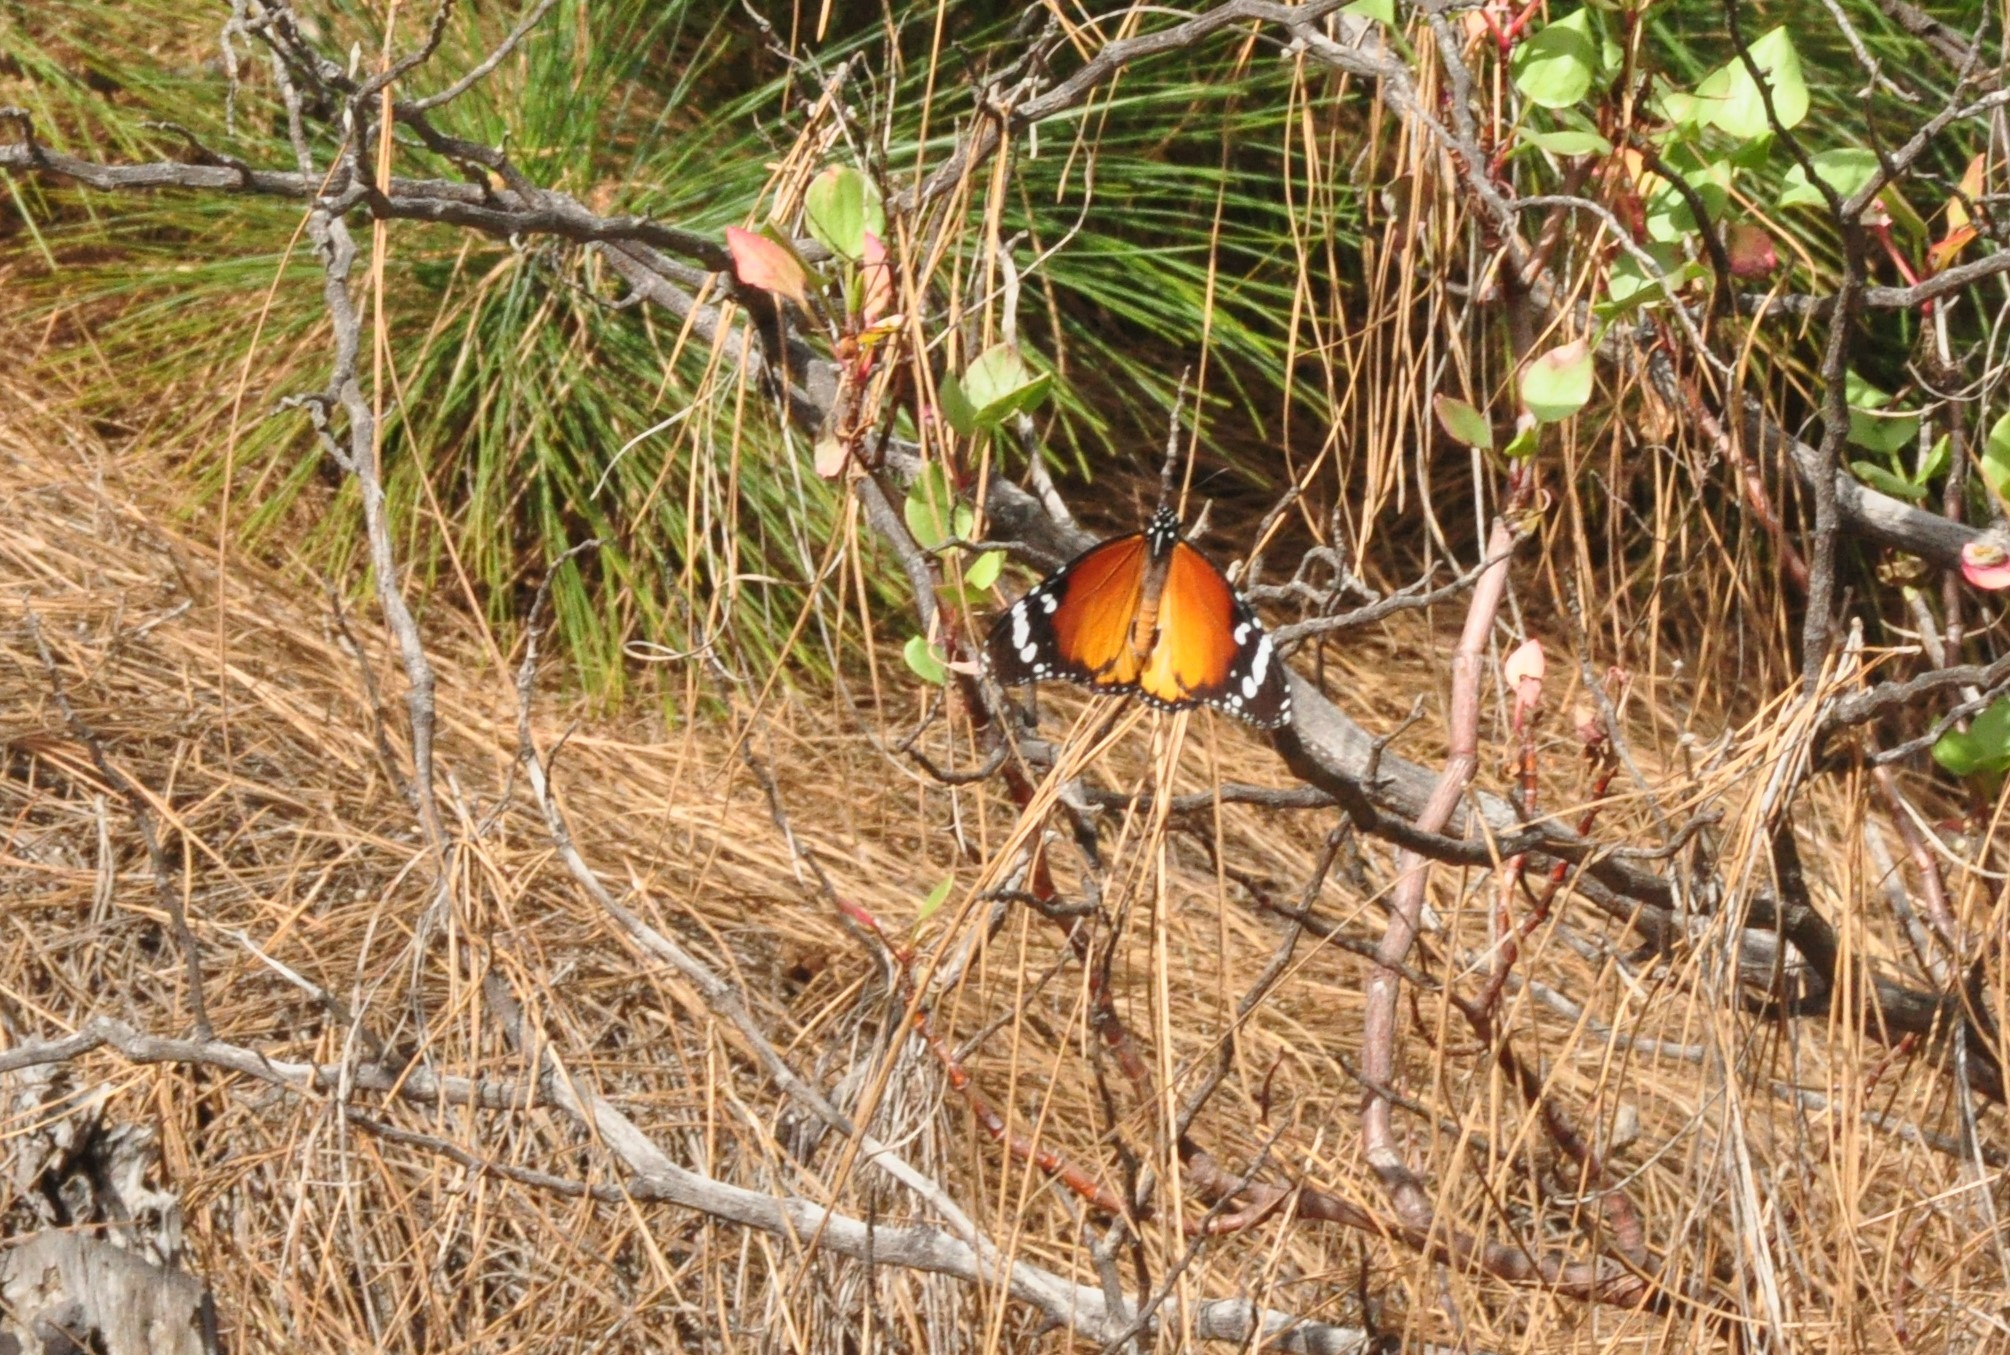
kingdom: Animalia
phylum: Arthropoda
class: Insecta
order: Lepidoptera
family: Nymphalidae
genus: Danaus
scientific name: Danaus chrysippus
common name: Plain tiger
